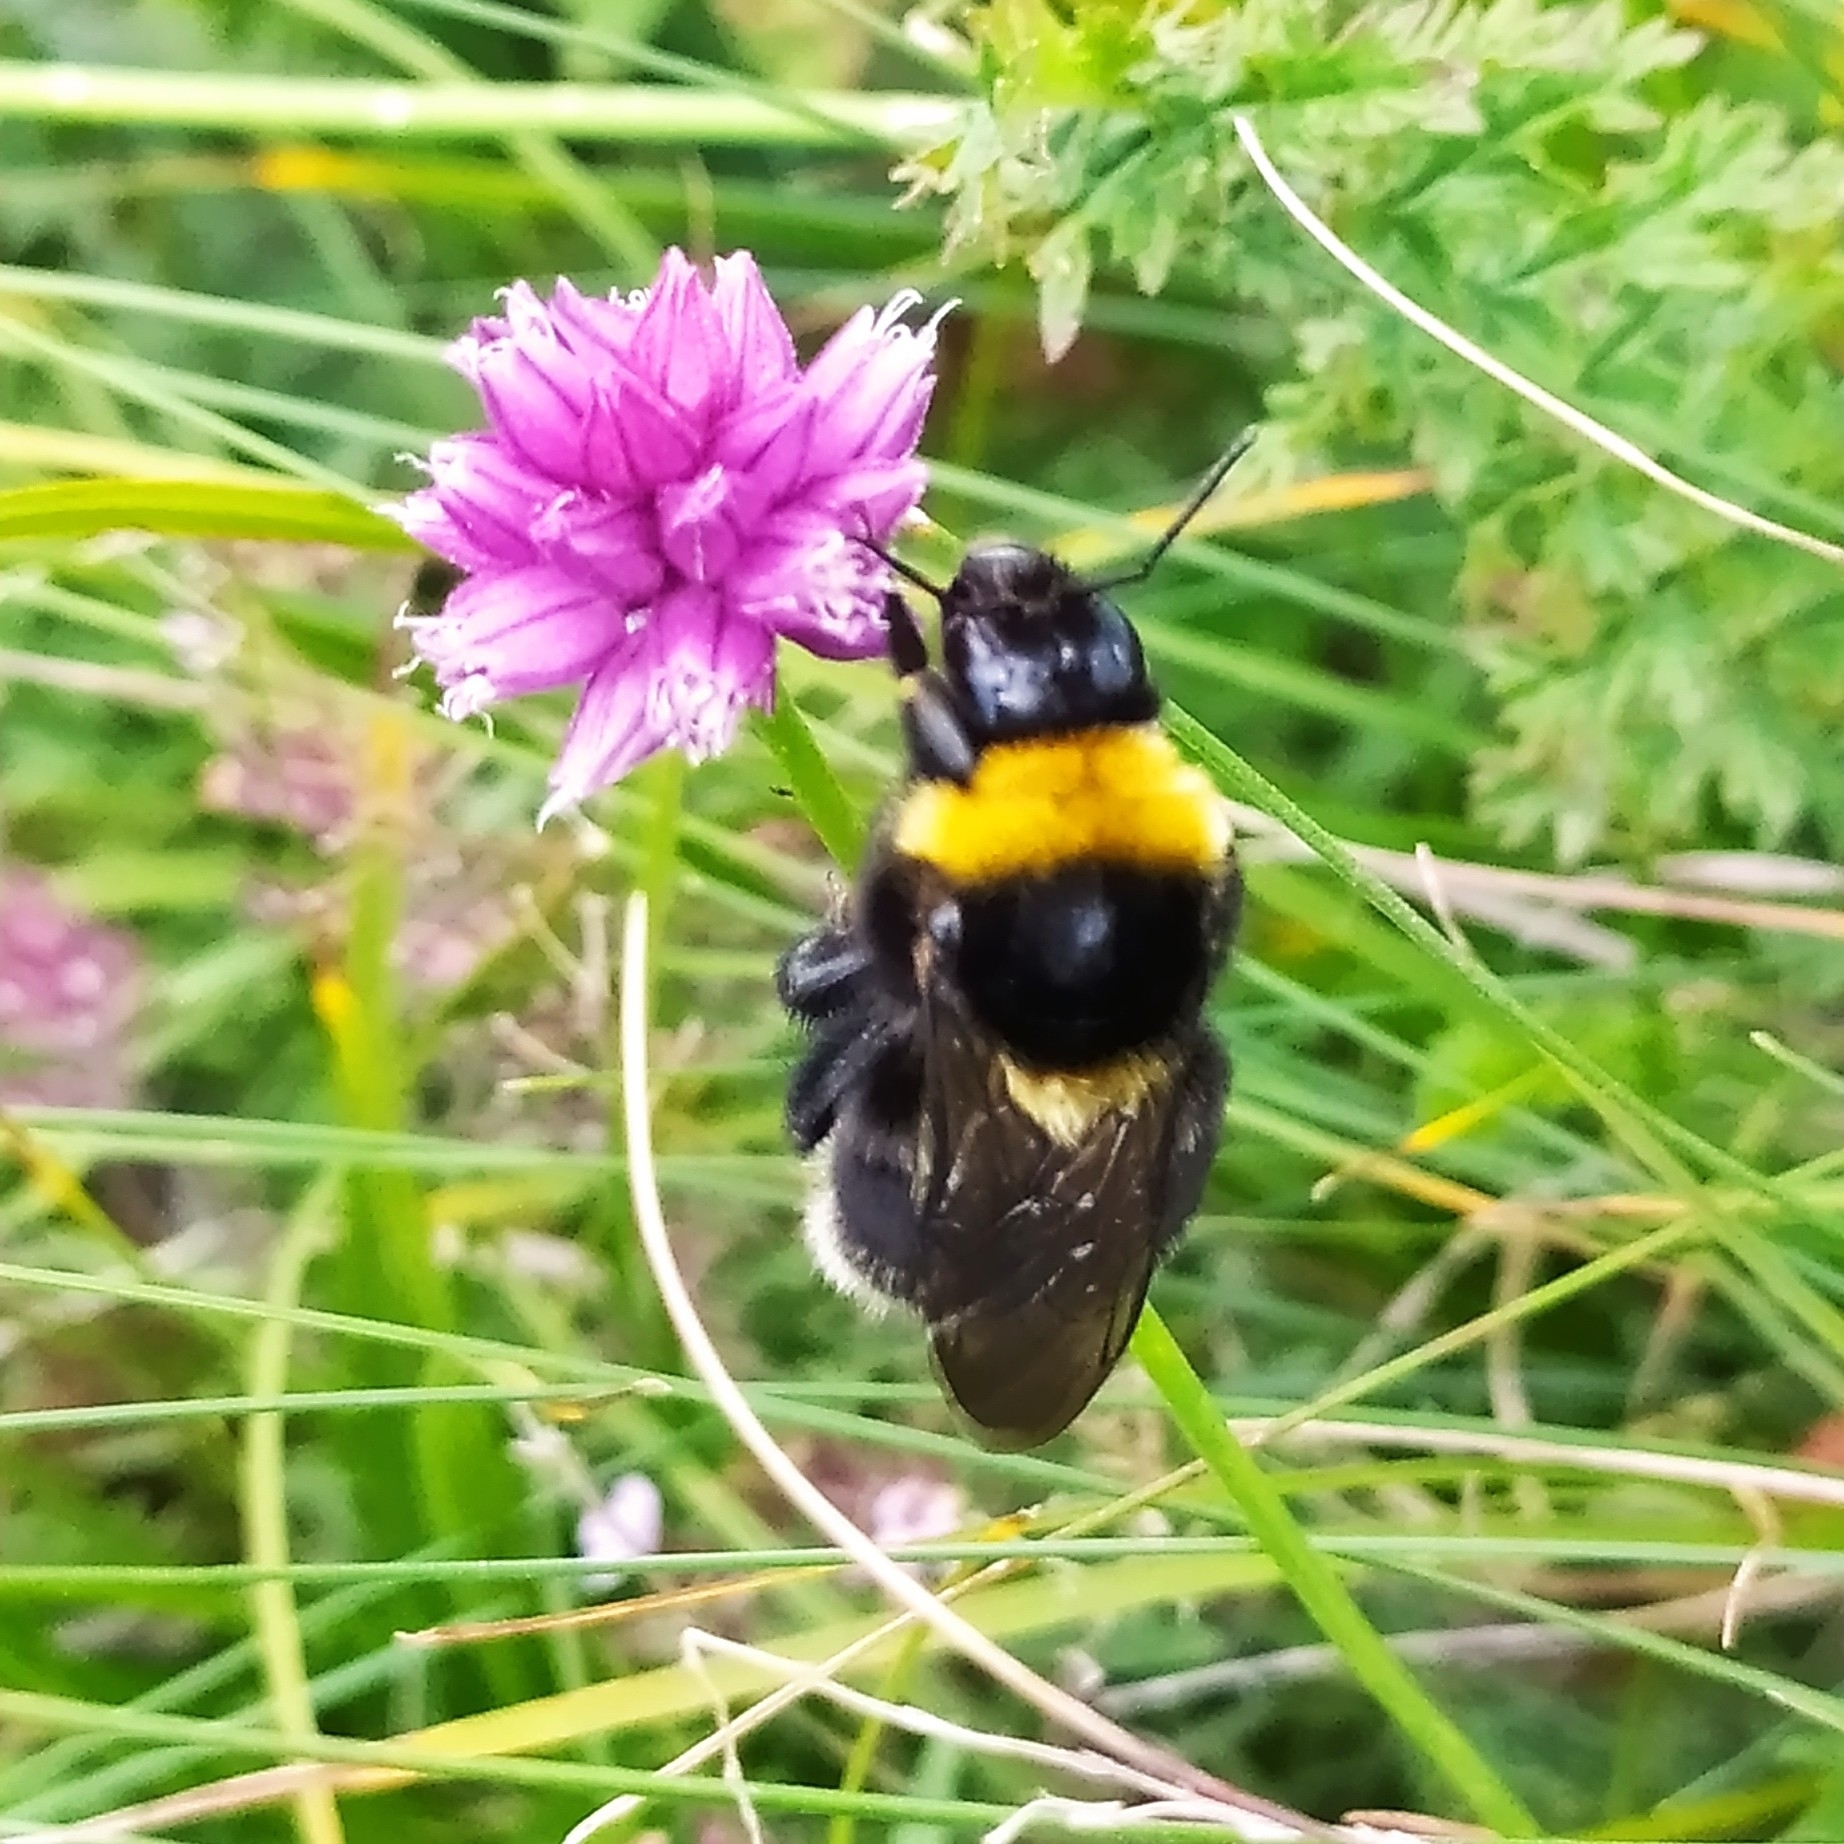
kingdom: Animalia
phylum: Arthropoda
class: Insecta
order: Hymenoptera
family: Apidae
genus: Bombus
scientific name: Bombus subterraneus
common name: Short-haired humble-bee
